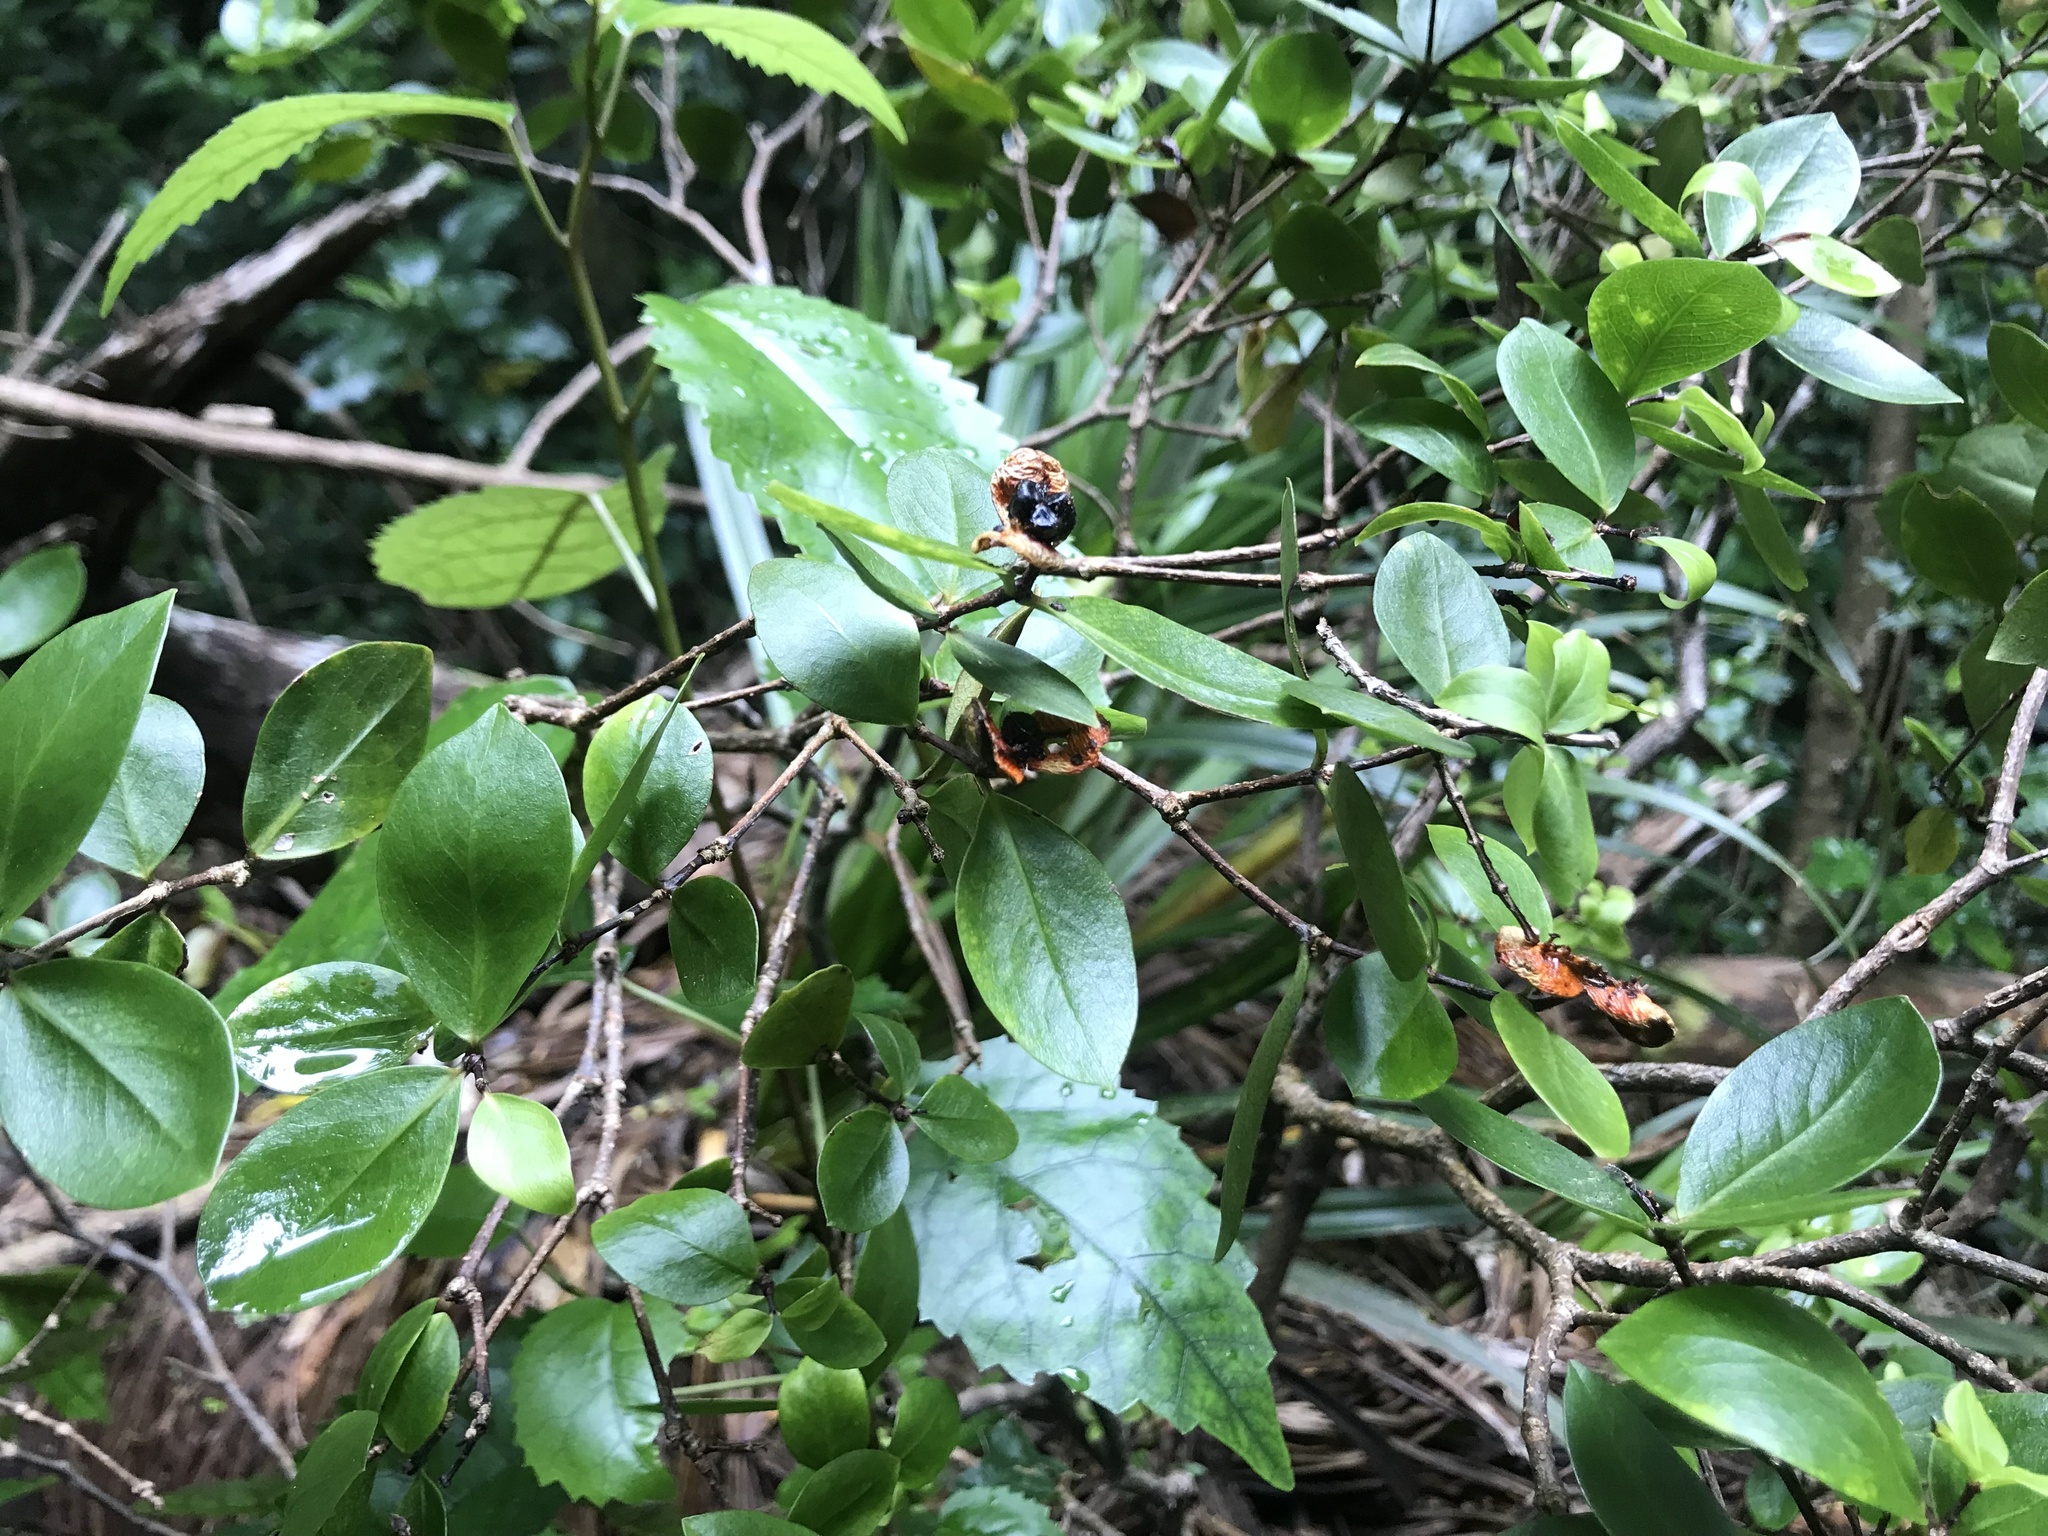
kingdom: Plantae
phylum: Tracheophyta
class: Magnoliopsida
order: Apiales
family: Pittosporaceae
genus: Pittosporum
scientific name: Pittosporum cornifolium
